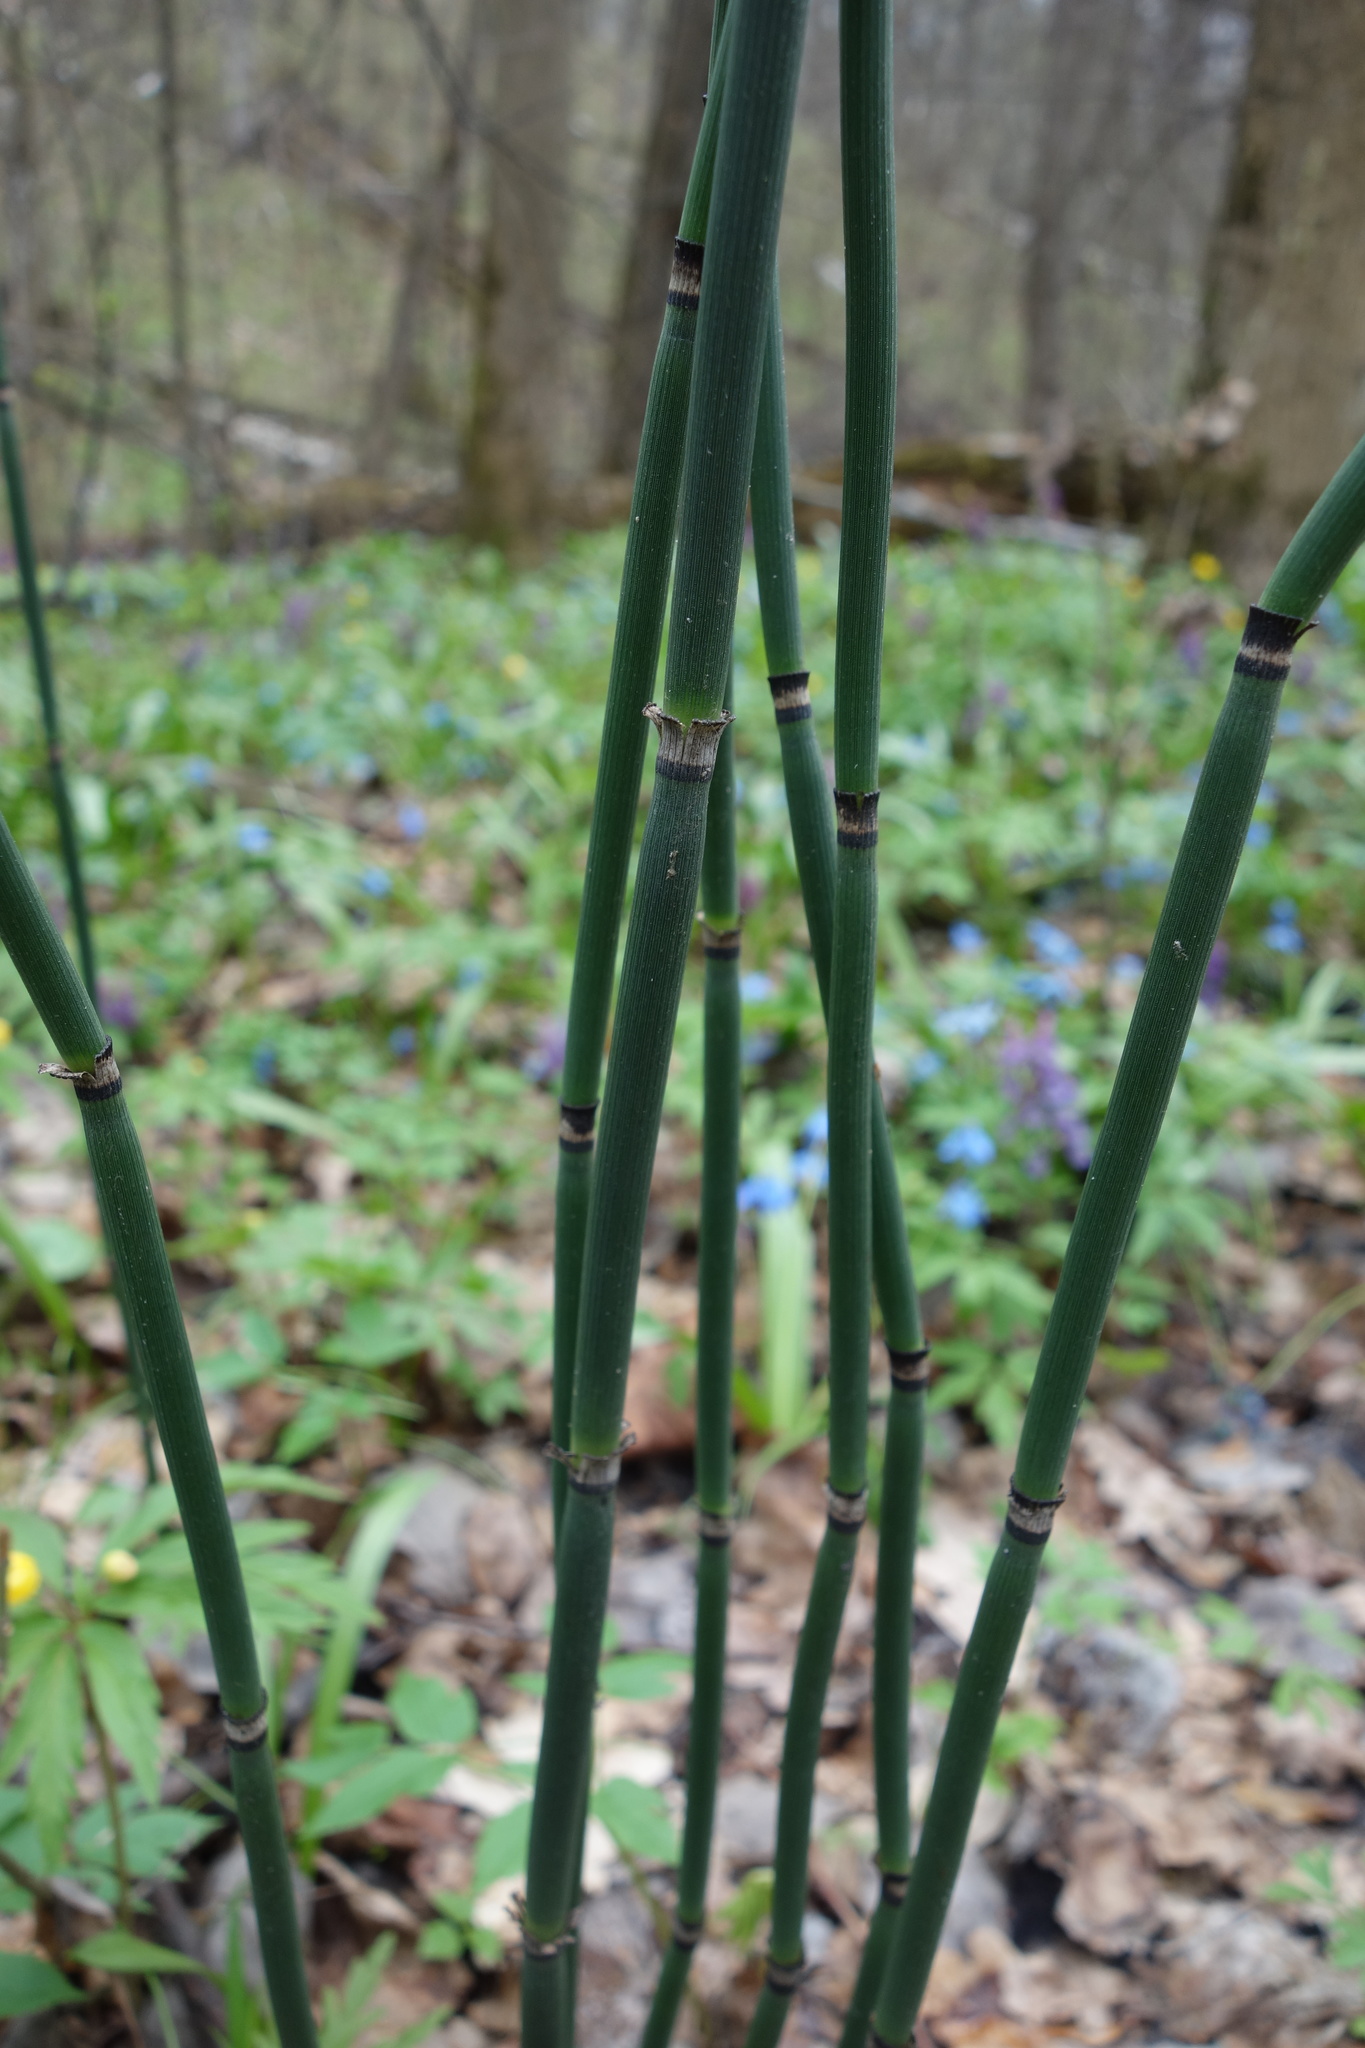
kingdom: Plantae
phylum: Tracheophyta
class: Polypodiopsida
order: Equisetales
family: Equisetaceae
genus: Equisetum
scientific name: Equisetum hyemale
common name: Rough horsetail
